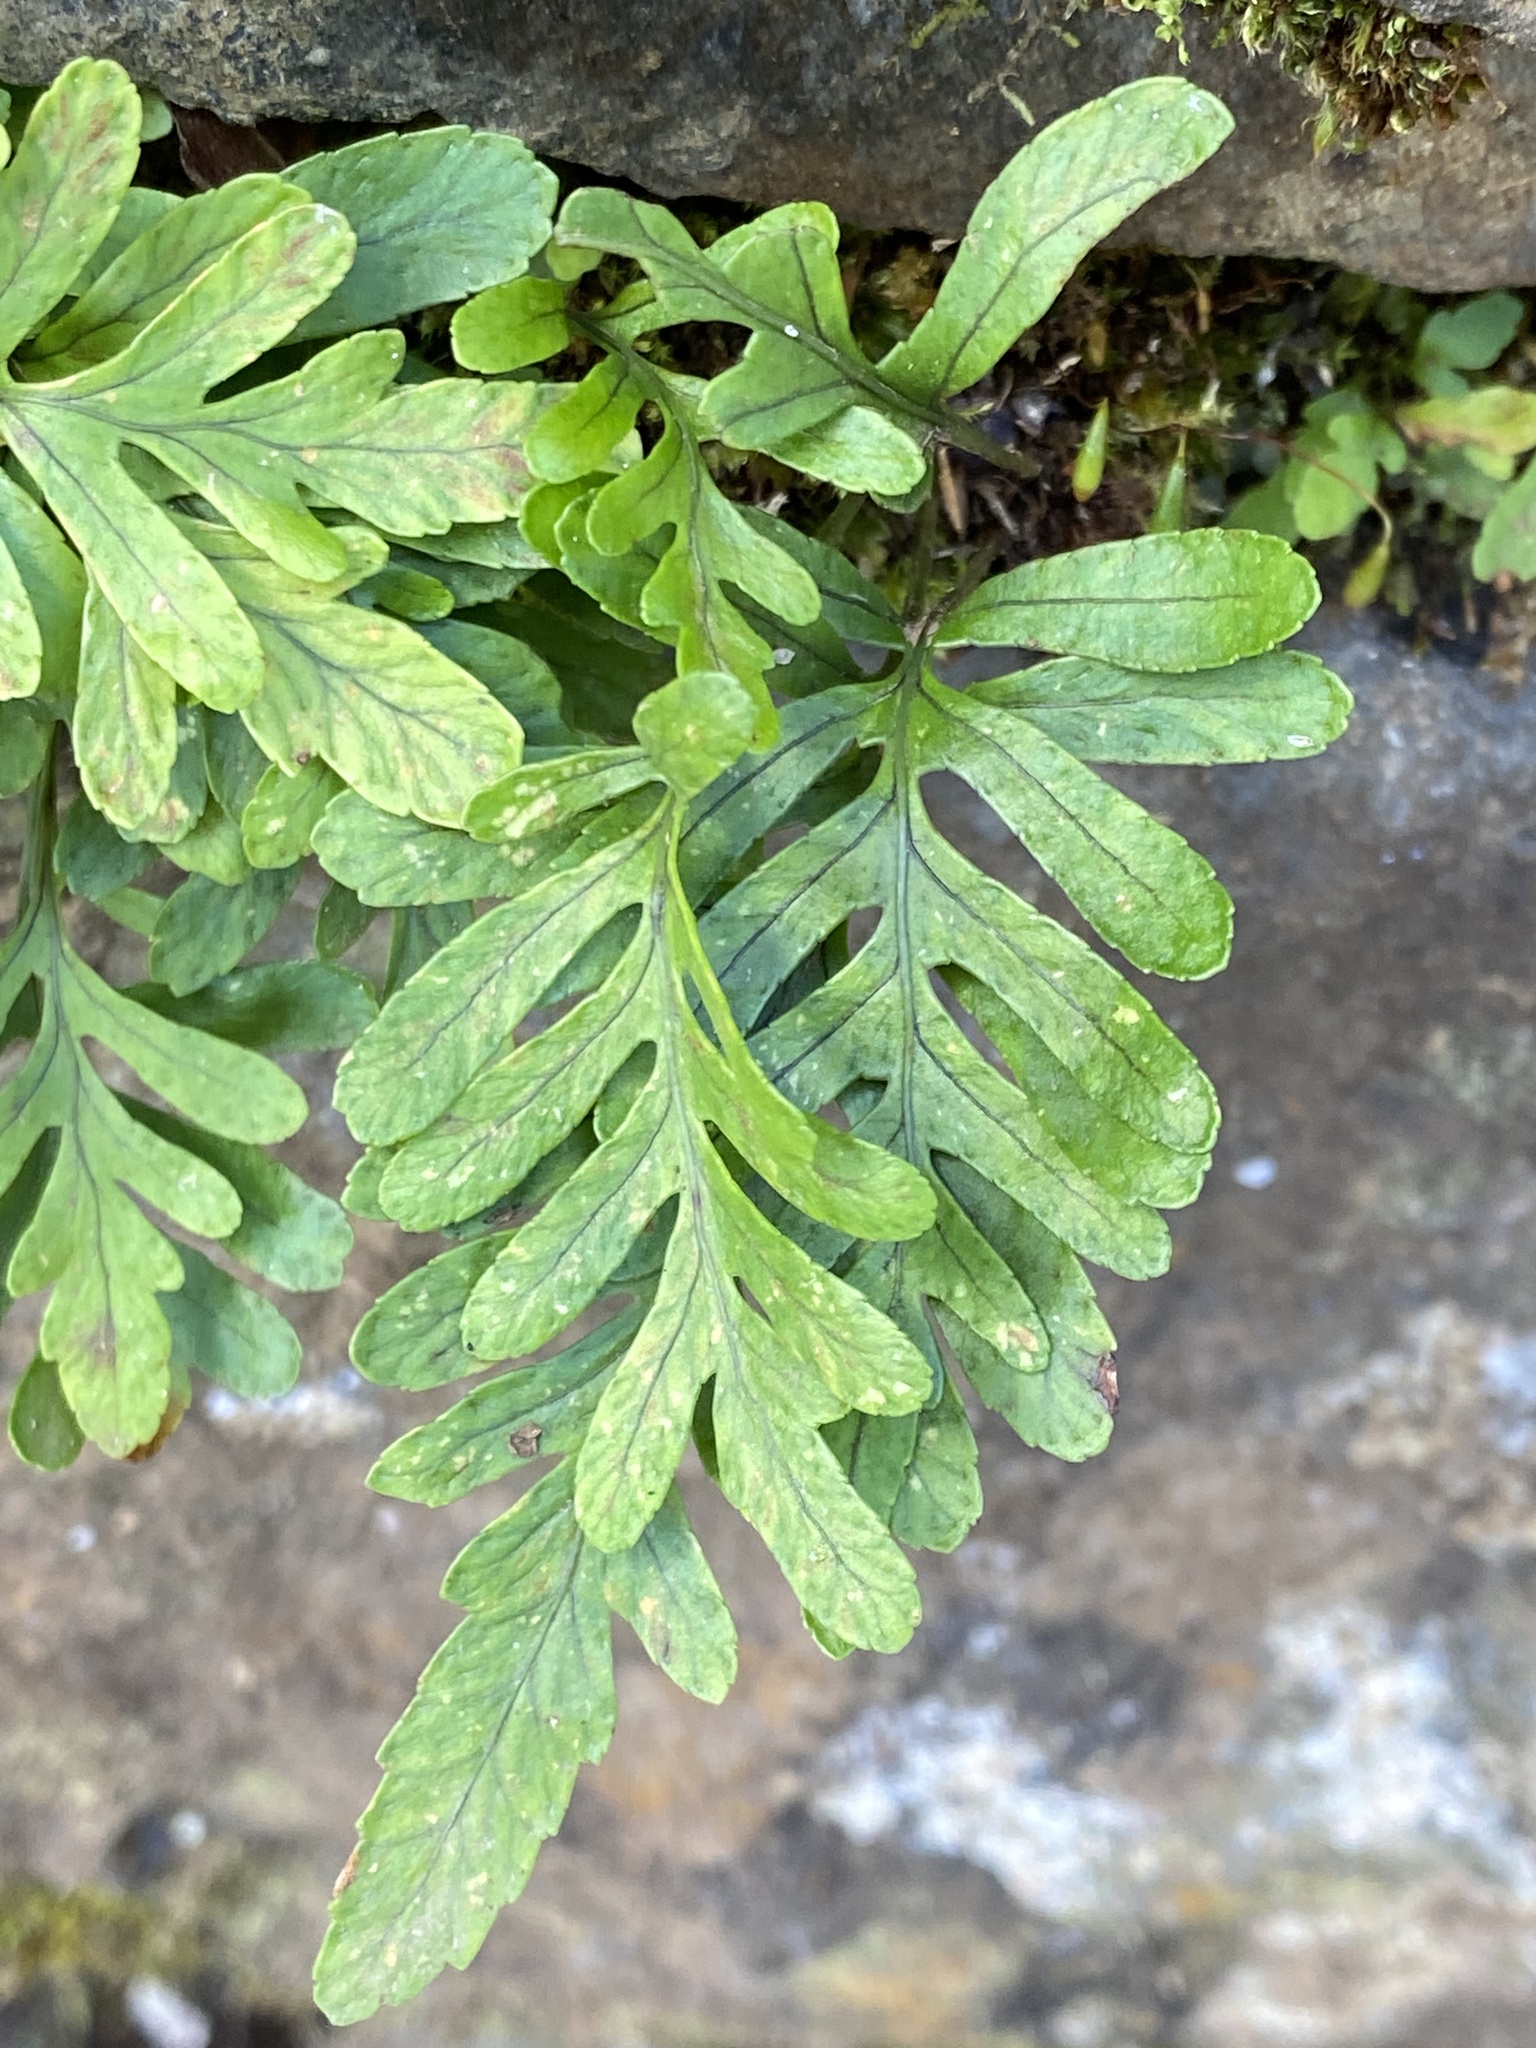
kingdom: Plantae
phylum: Tracheophyta
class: Polypodiopsida
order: Polypodiales
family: Polypodiaceae
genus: Polypodium
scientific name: Polypodium macaronesicum
